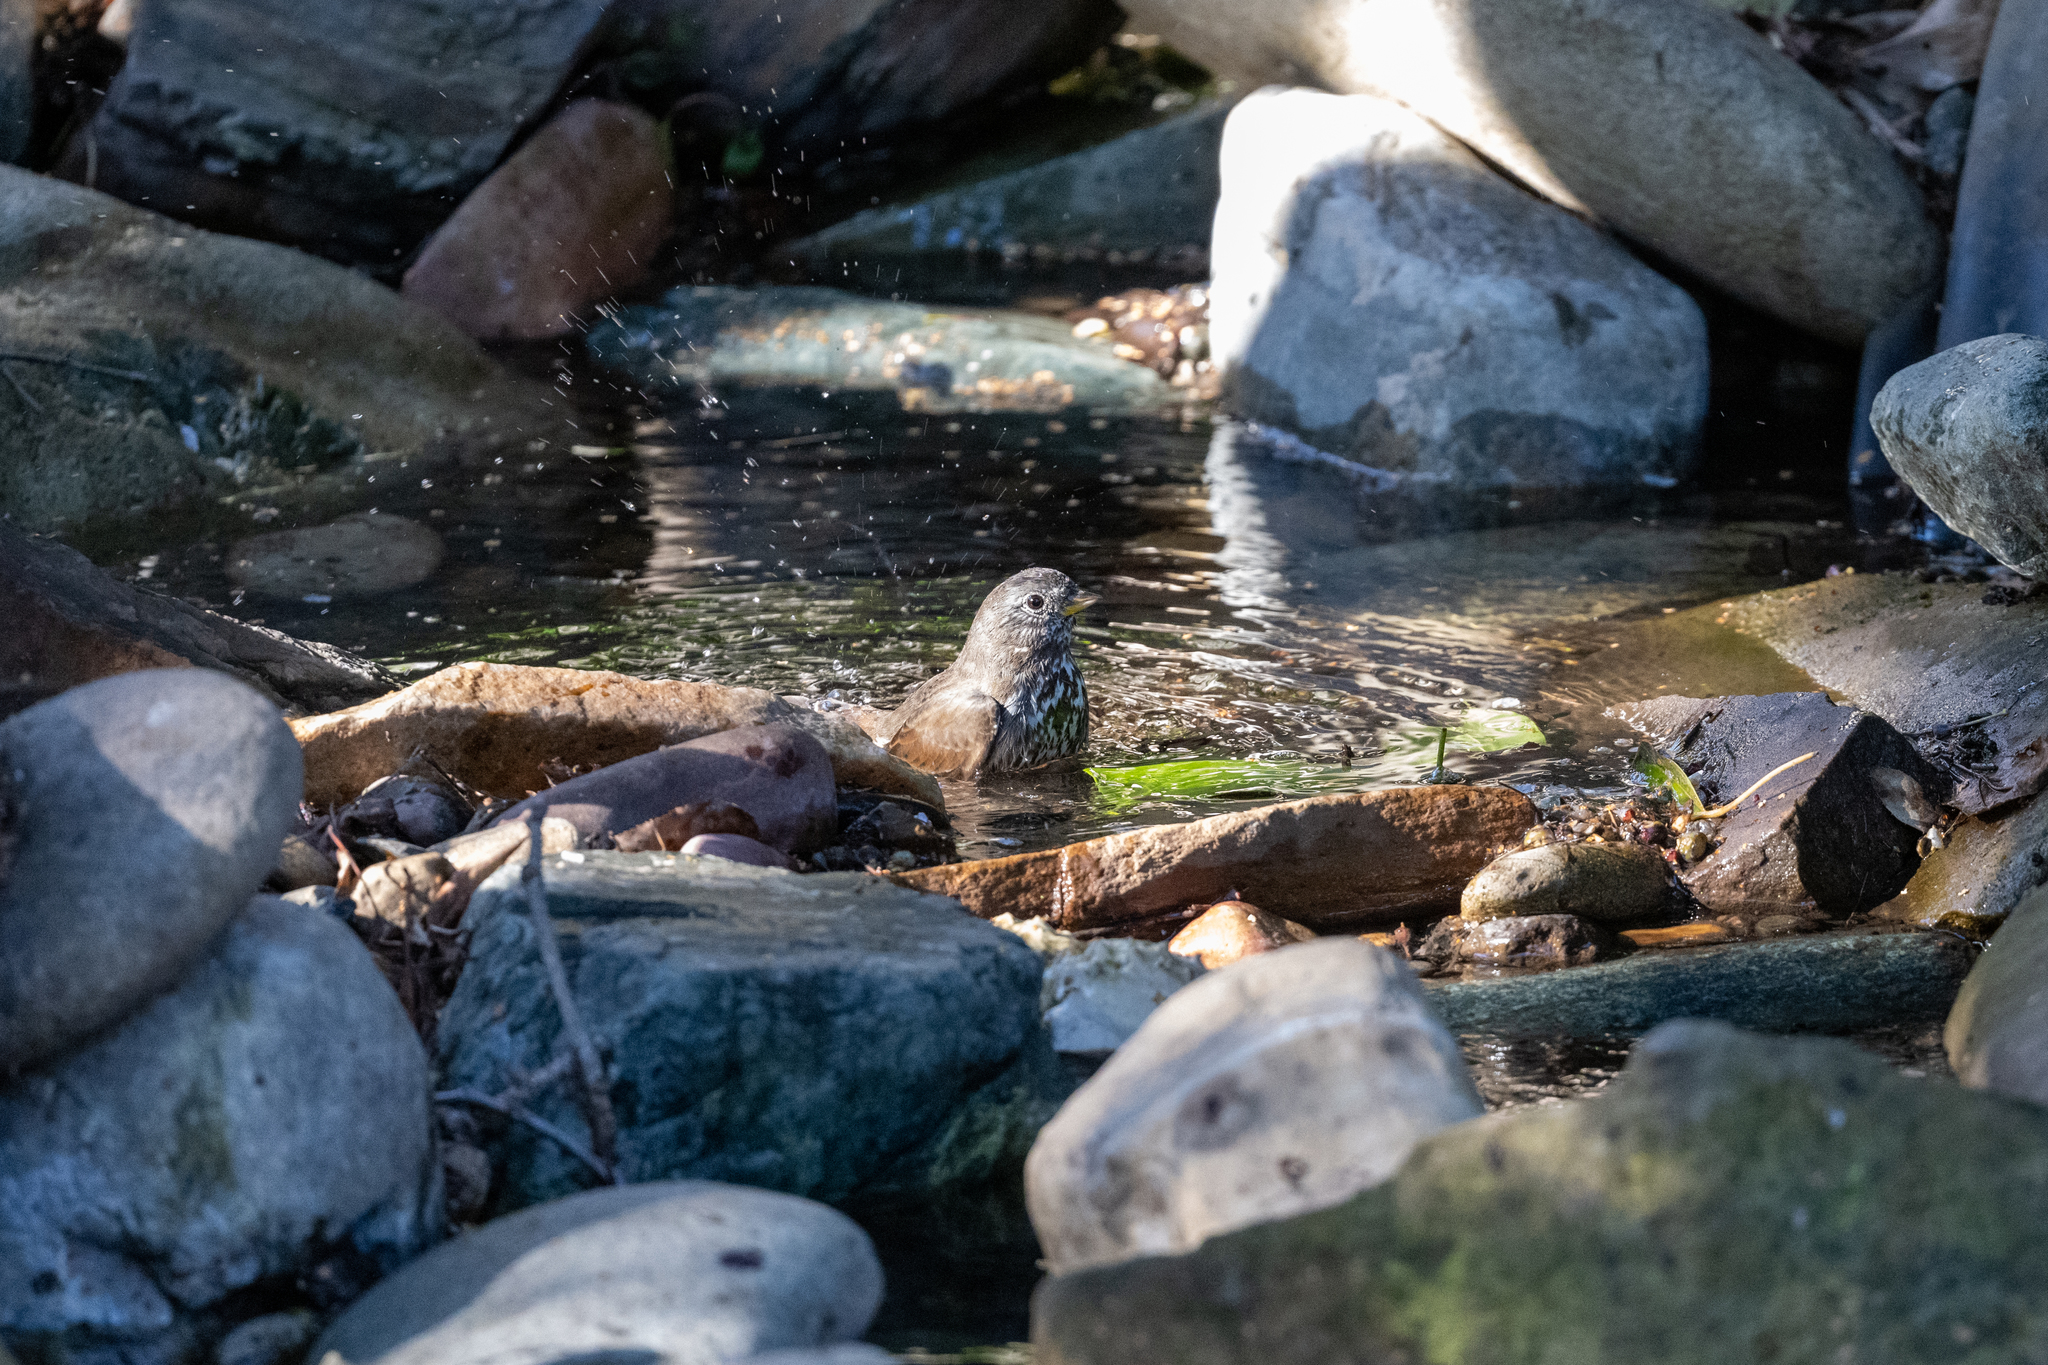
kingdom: Animalia
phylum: Chordata
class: Aves
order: Passeriformes
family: Passerellidae
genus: Passerella
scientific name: Passerella iliaca
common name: Fox sparrow
